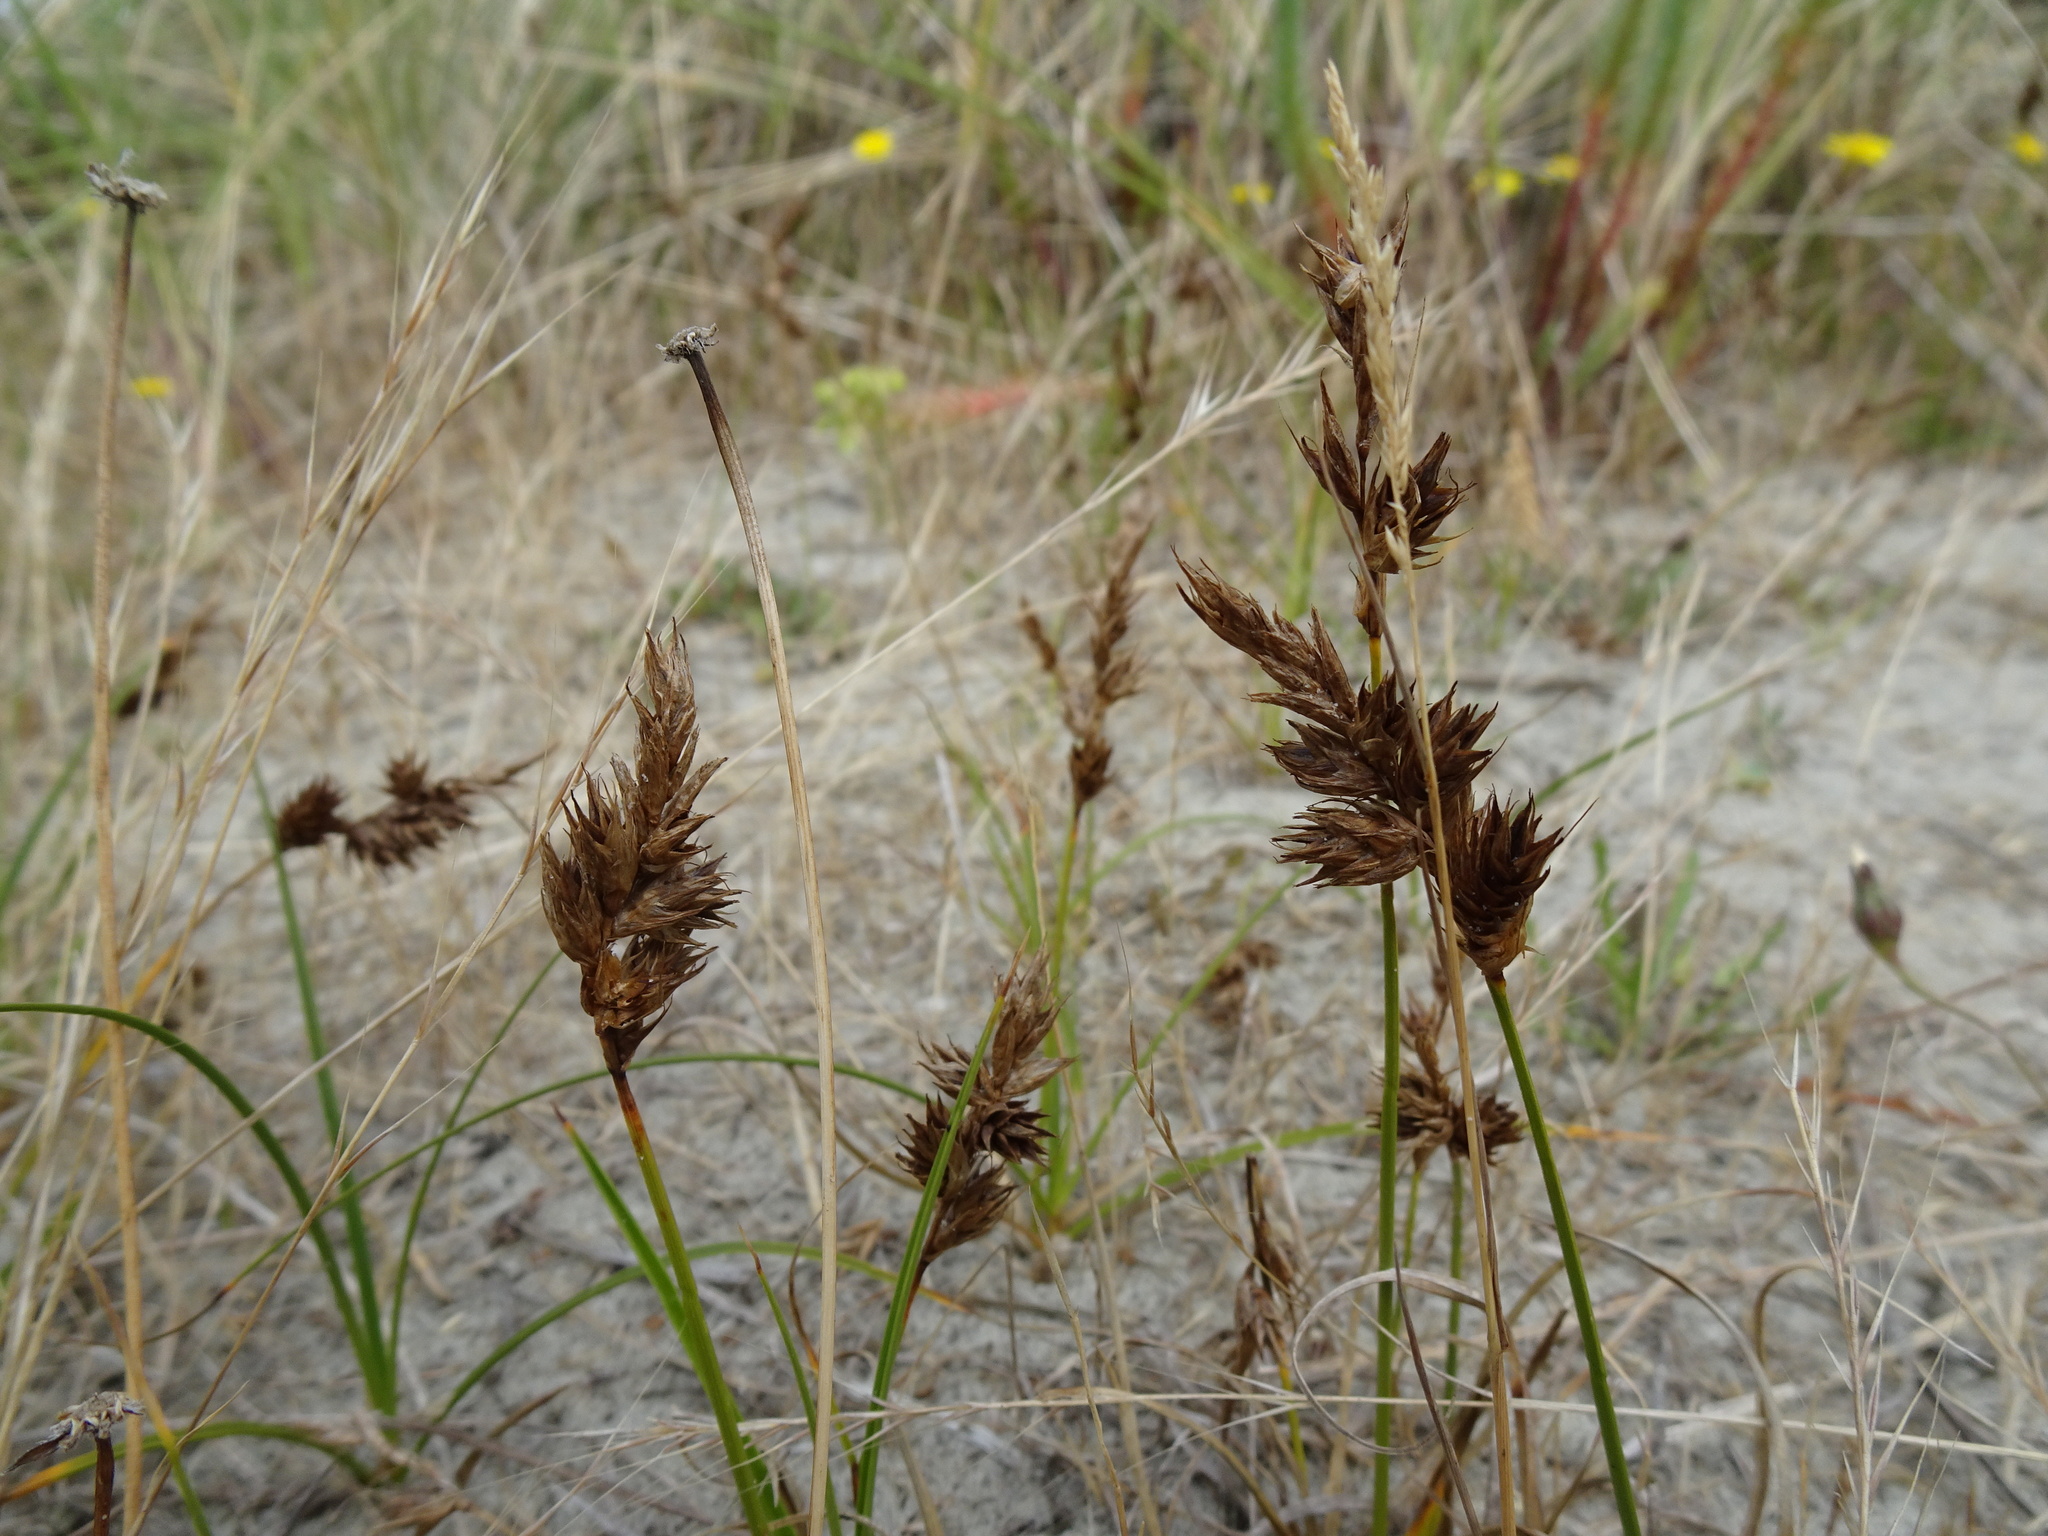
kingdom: Plantae
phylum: Tracheophyta
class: Liliopsida
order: Poales
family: Cyperaceae
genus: Carex
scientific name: Carex arenaria
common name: Sand sedge
